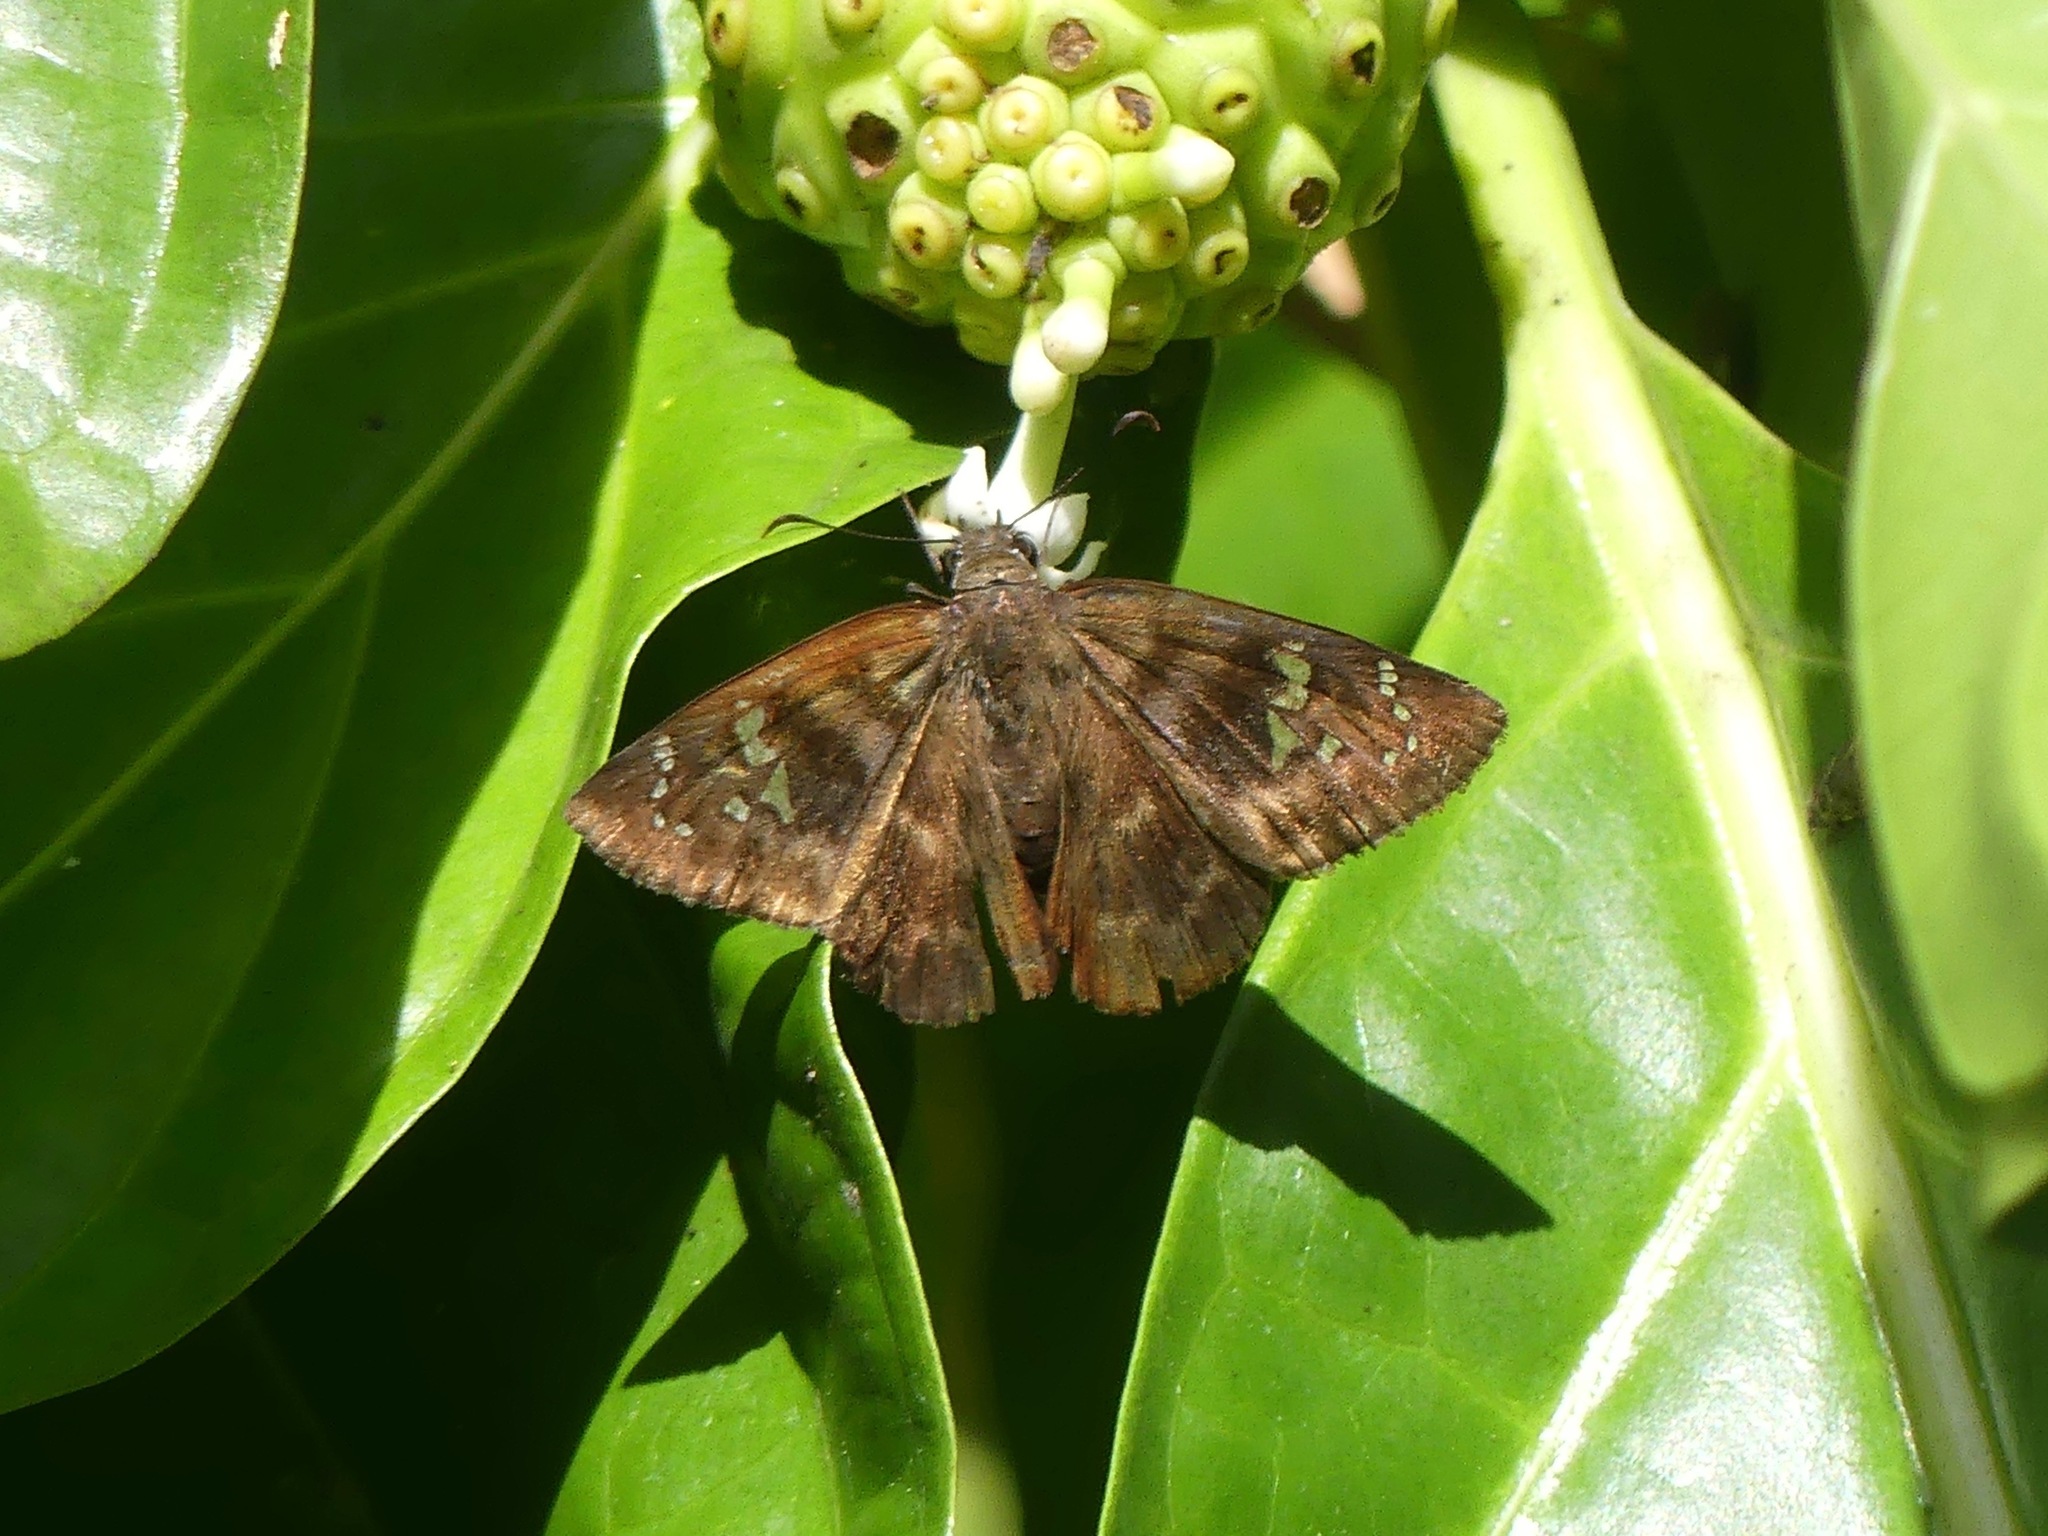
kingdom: Animalia
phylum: Arthropoda
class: Insecta
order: Lepidoptera
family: Hesperiidae
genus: Ephyriades
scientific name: Ephyriades zephodes
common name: Zephodes duskywing
